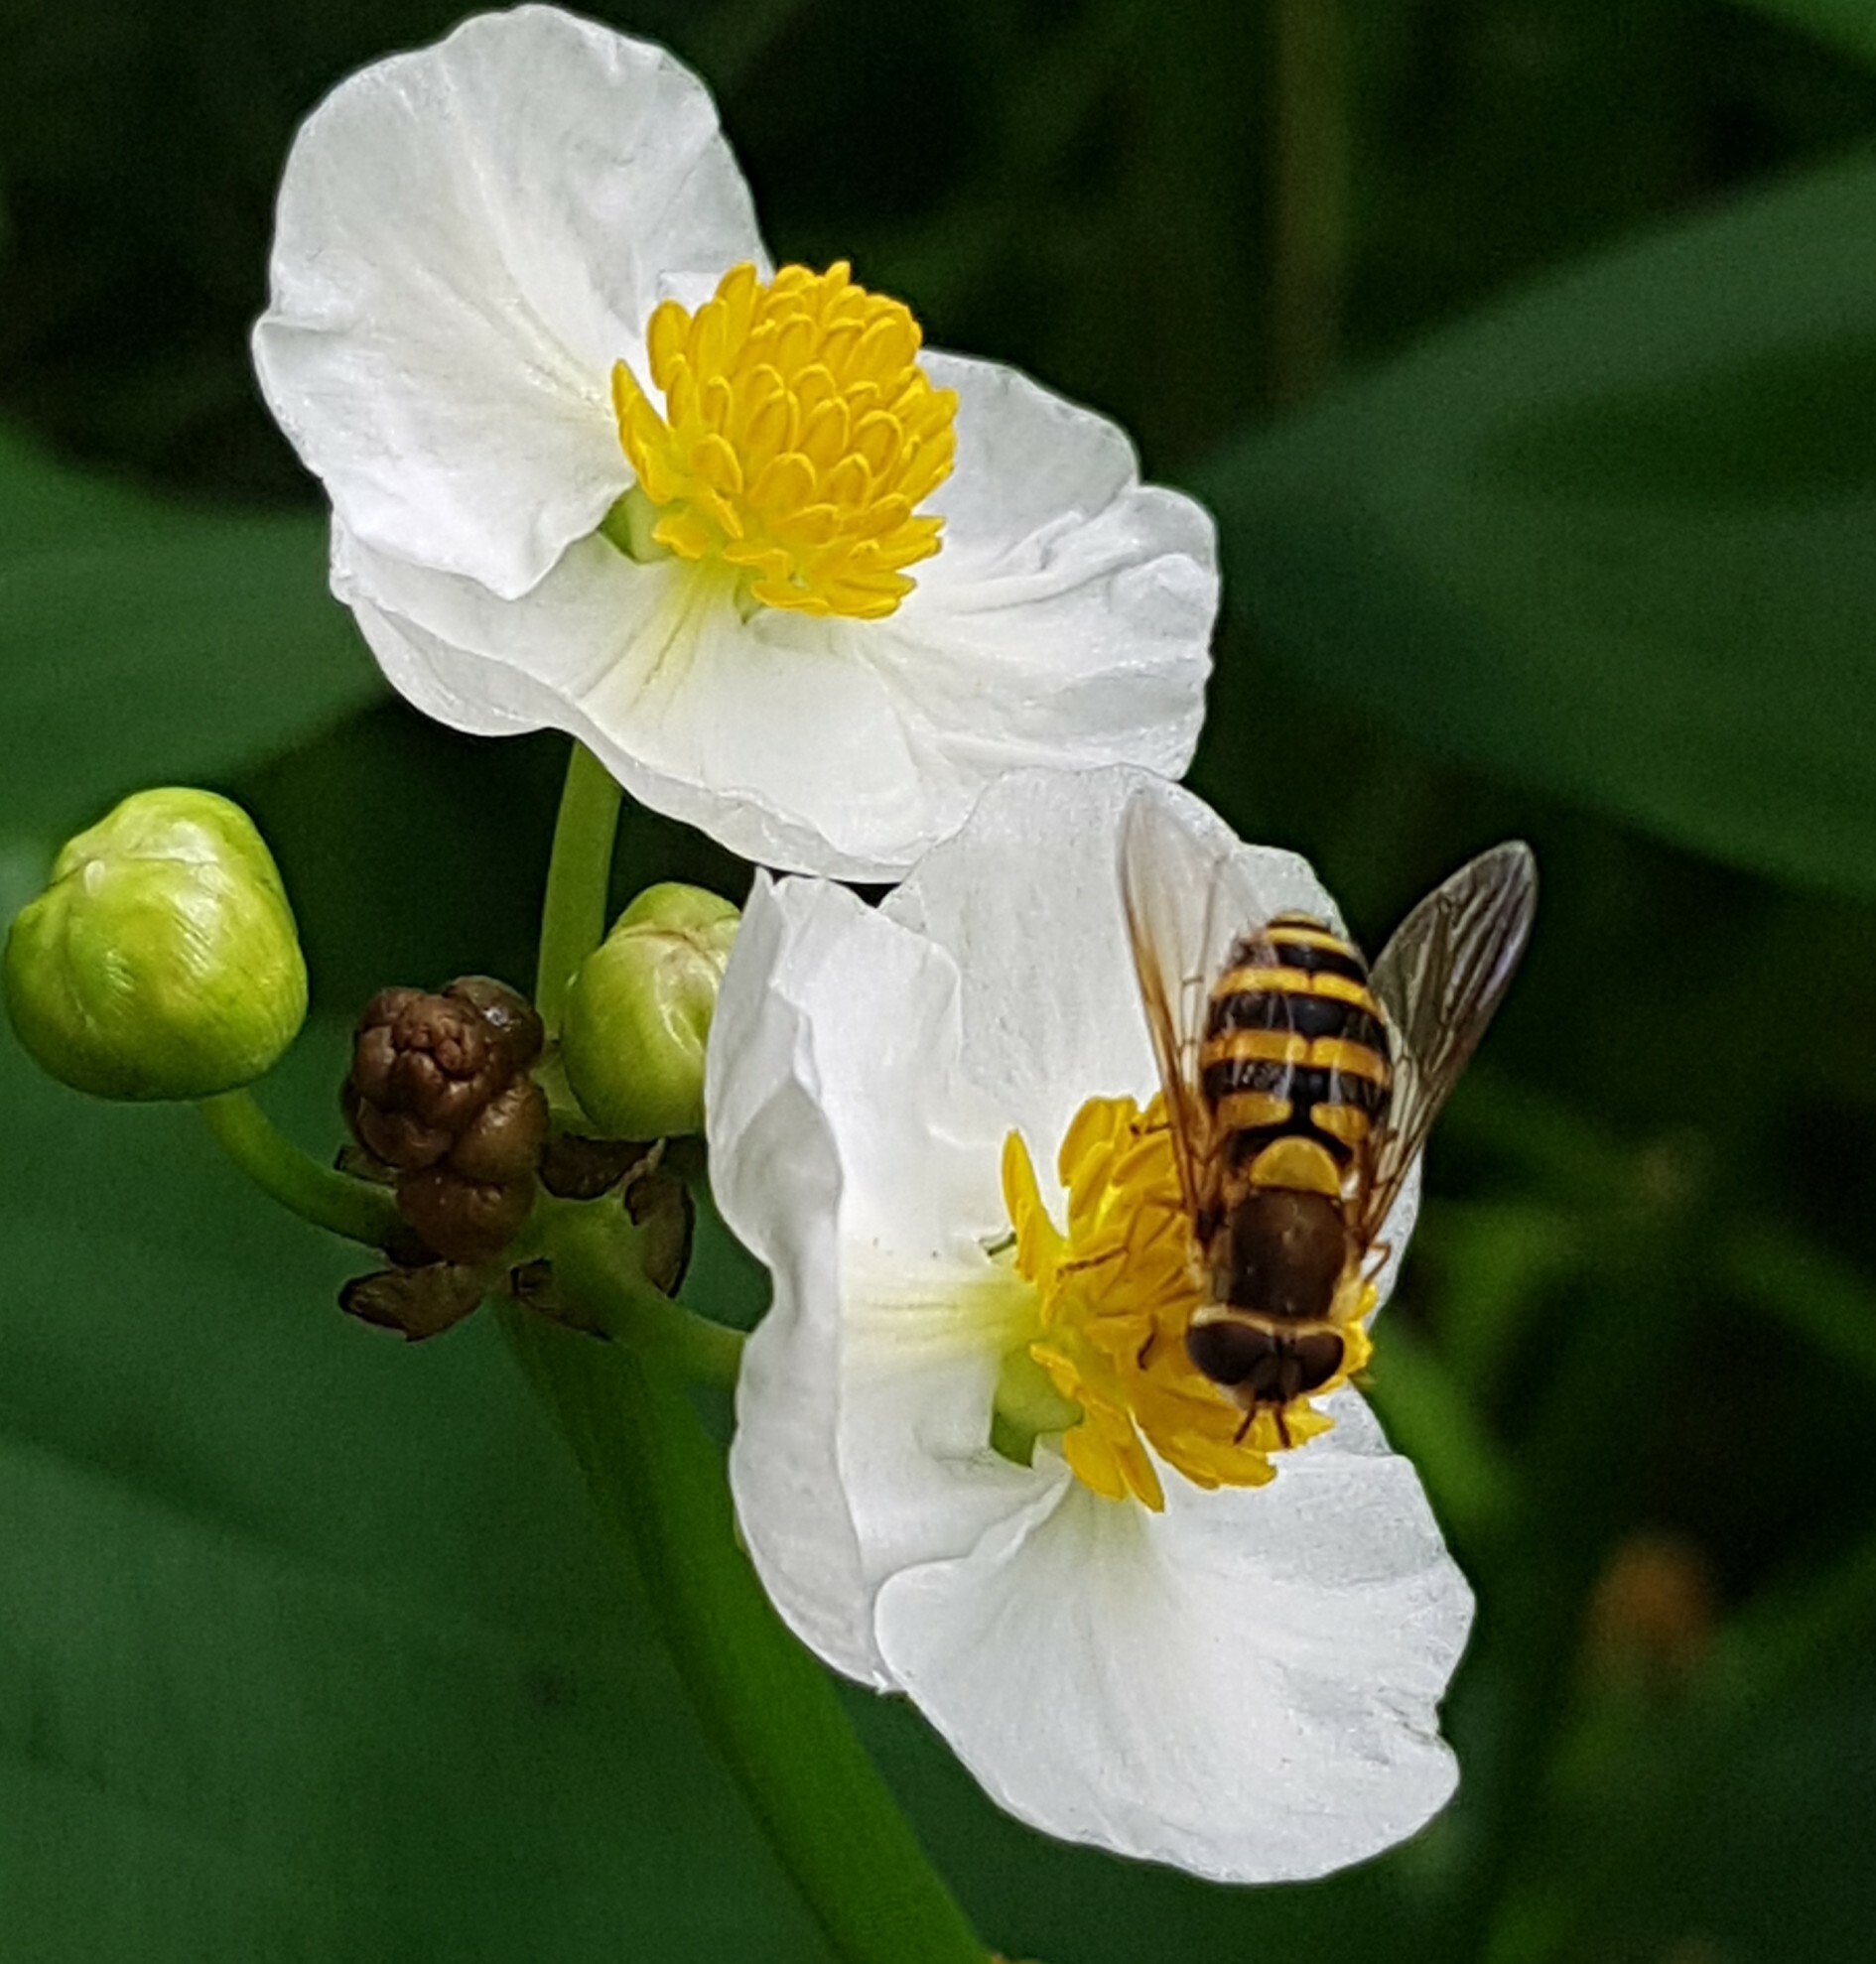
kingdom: Animalia
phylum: Arthropoda
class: Insecta
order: Diptera
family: Syrphidae
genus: Syrphus
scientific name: Syrphus
